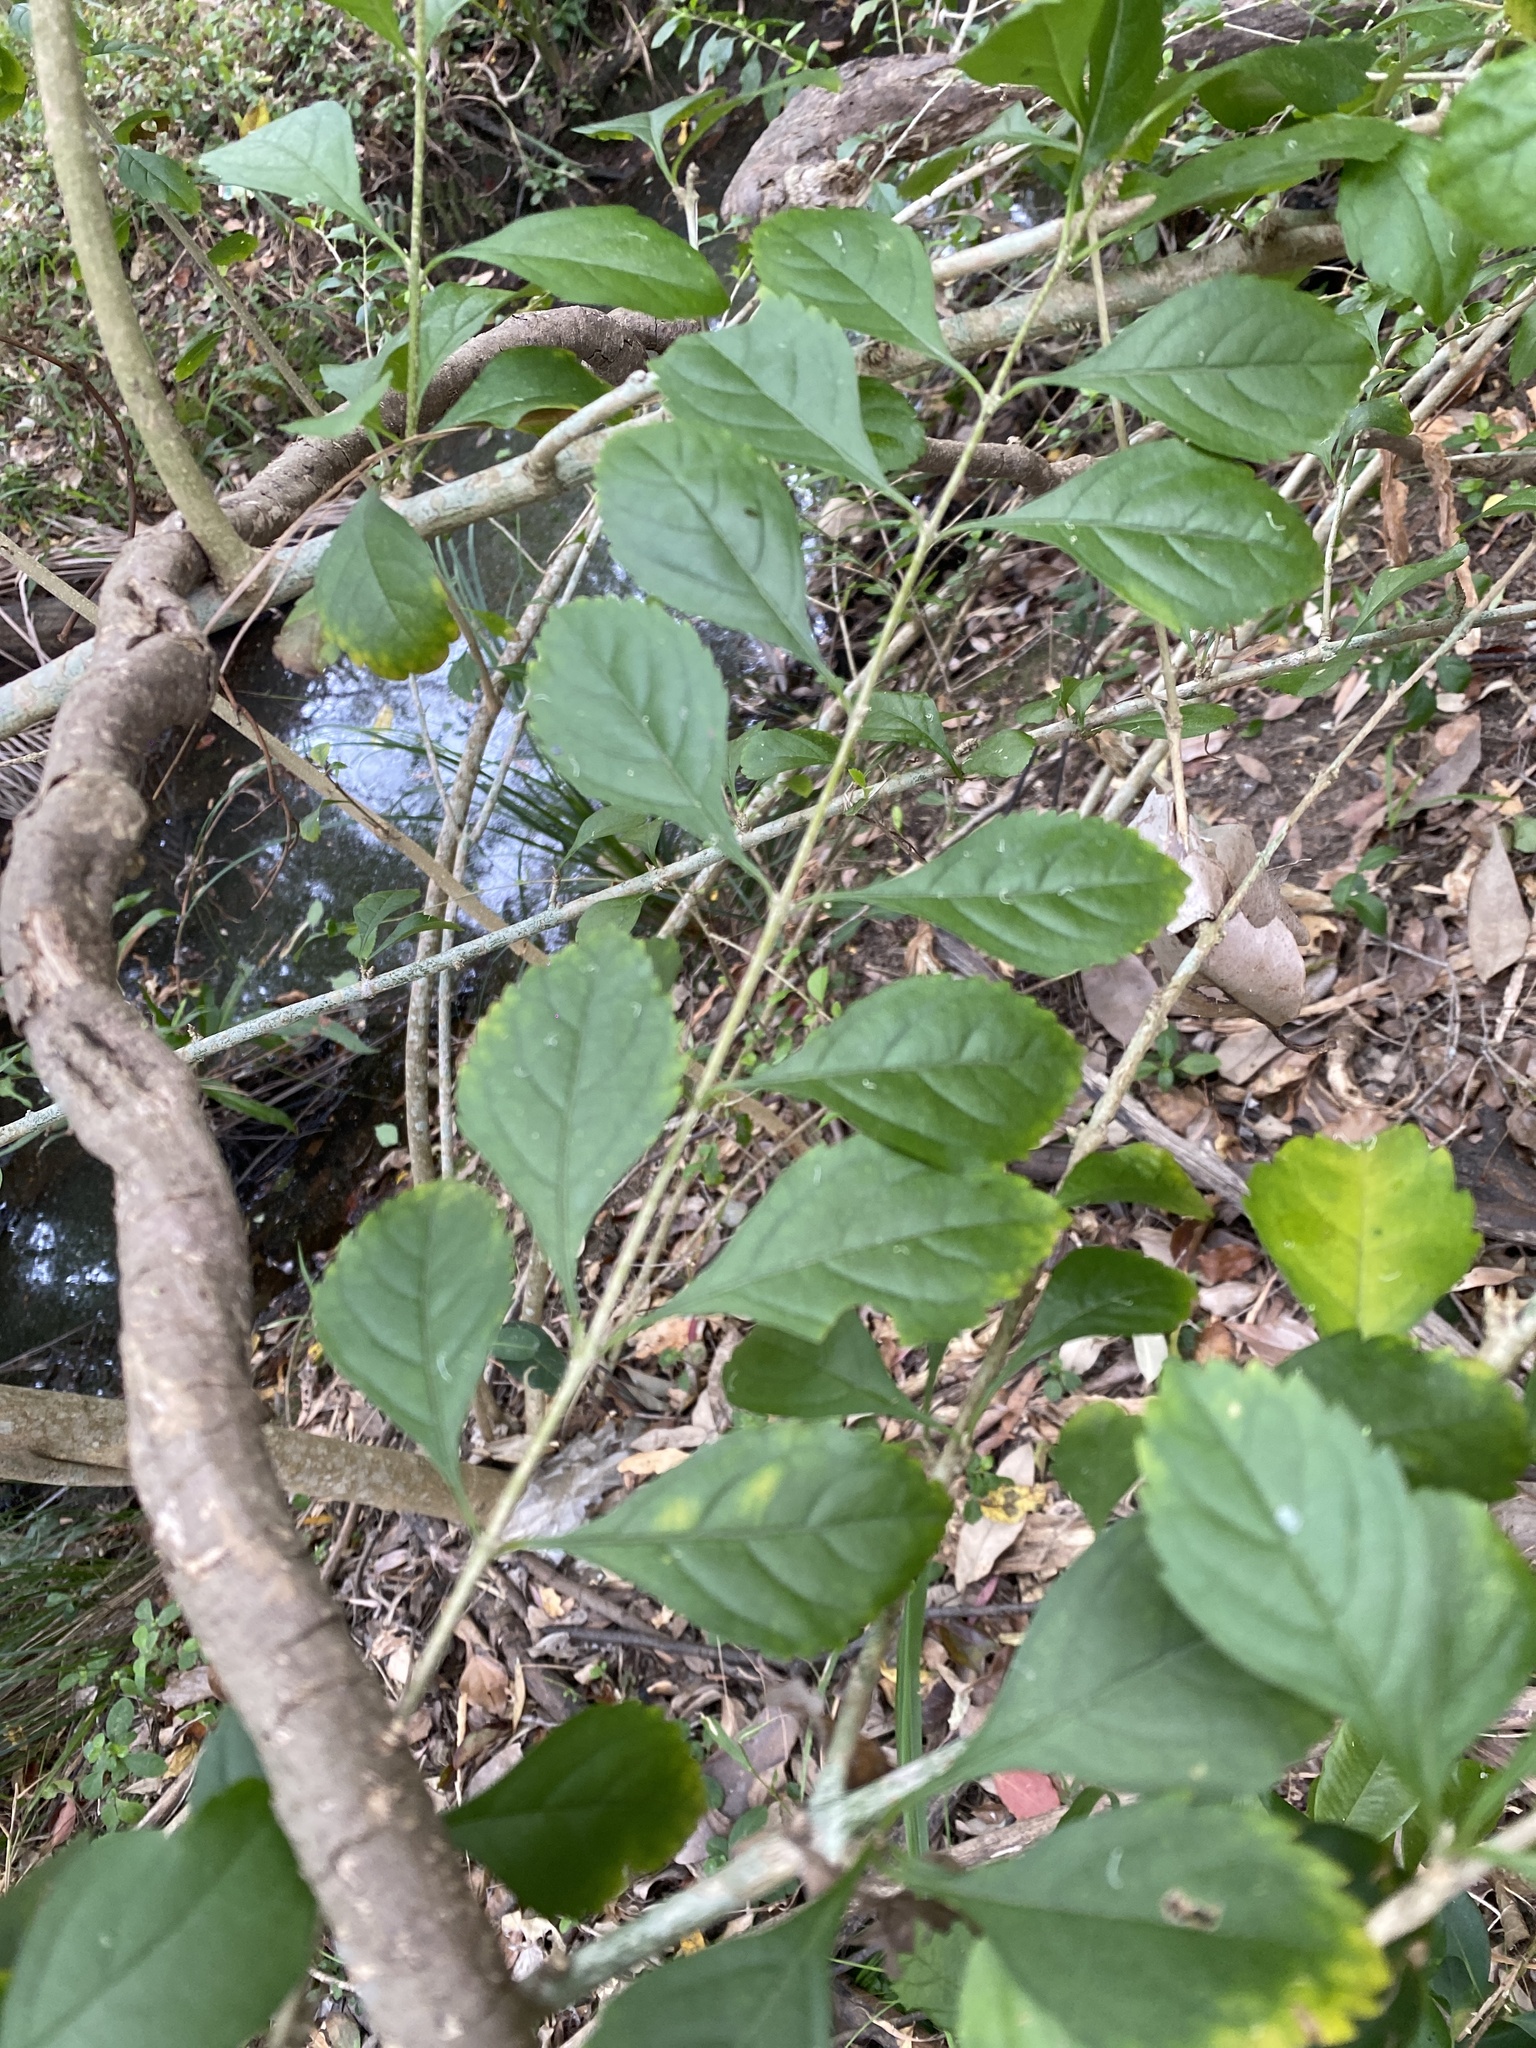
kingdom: Plantae
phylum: Tracheophyta
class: Magnoliopsida
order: Lamiales
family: Verbenaceae
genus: Duranta
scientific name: Duranta erecta
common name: Golden dewdrops
